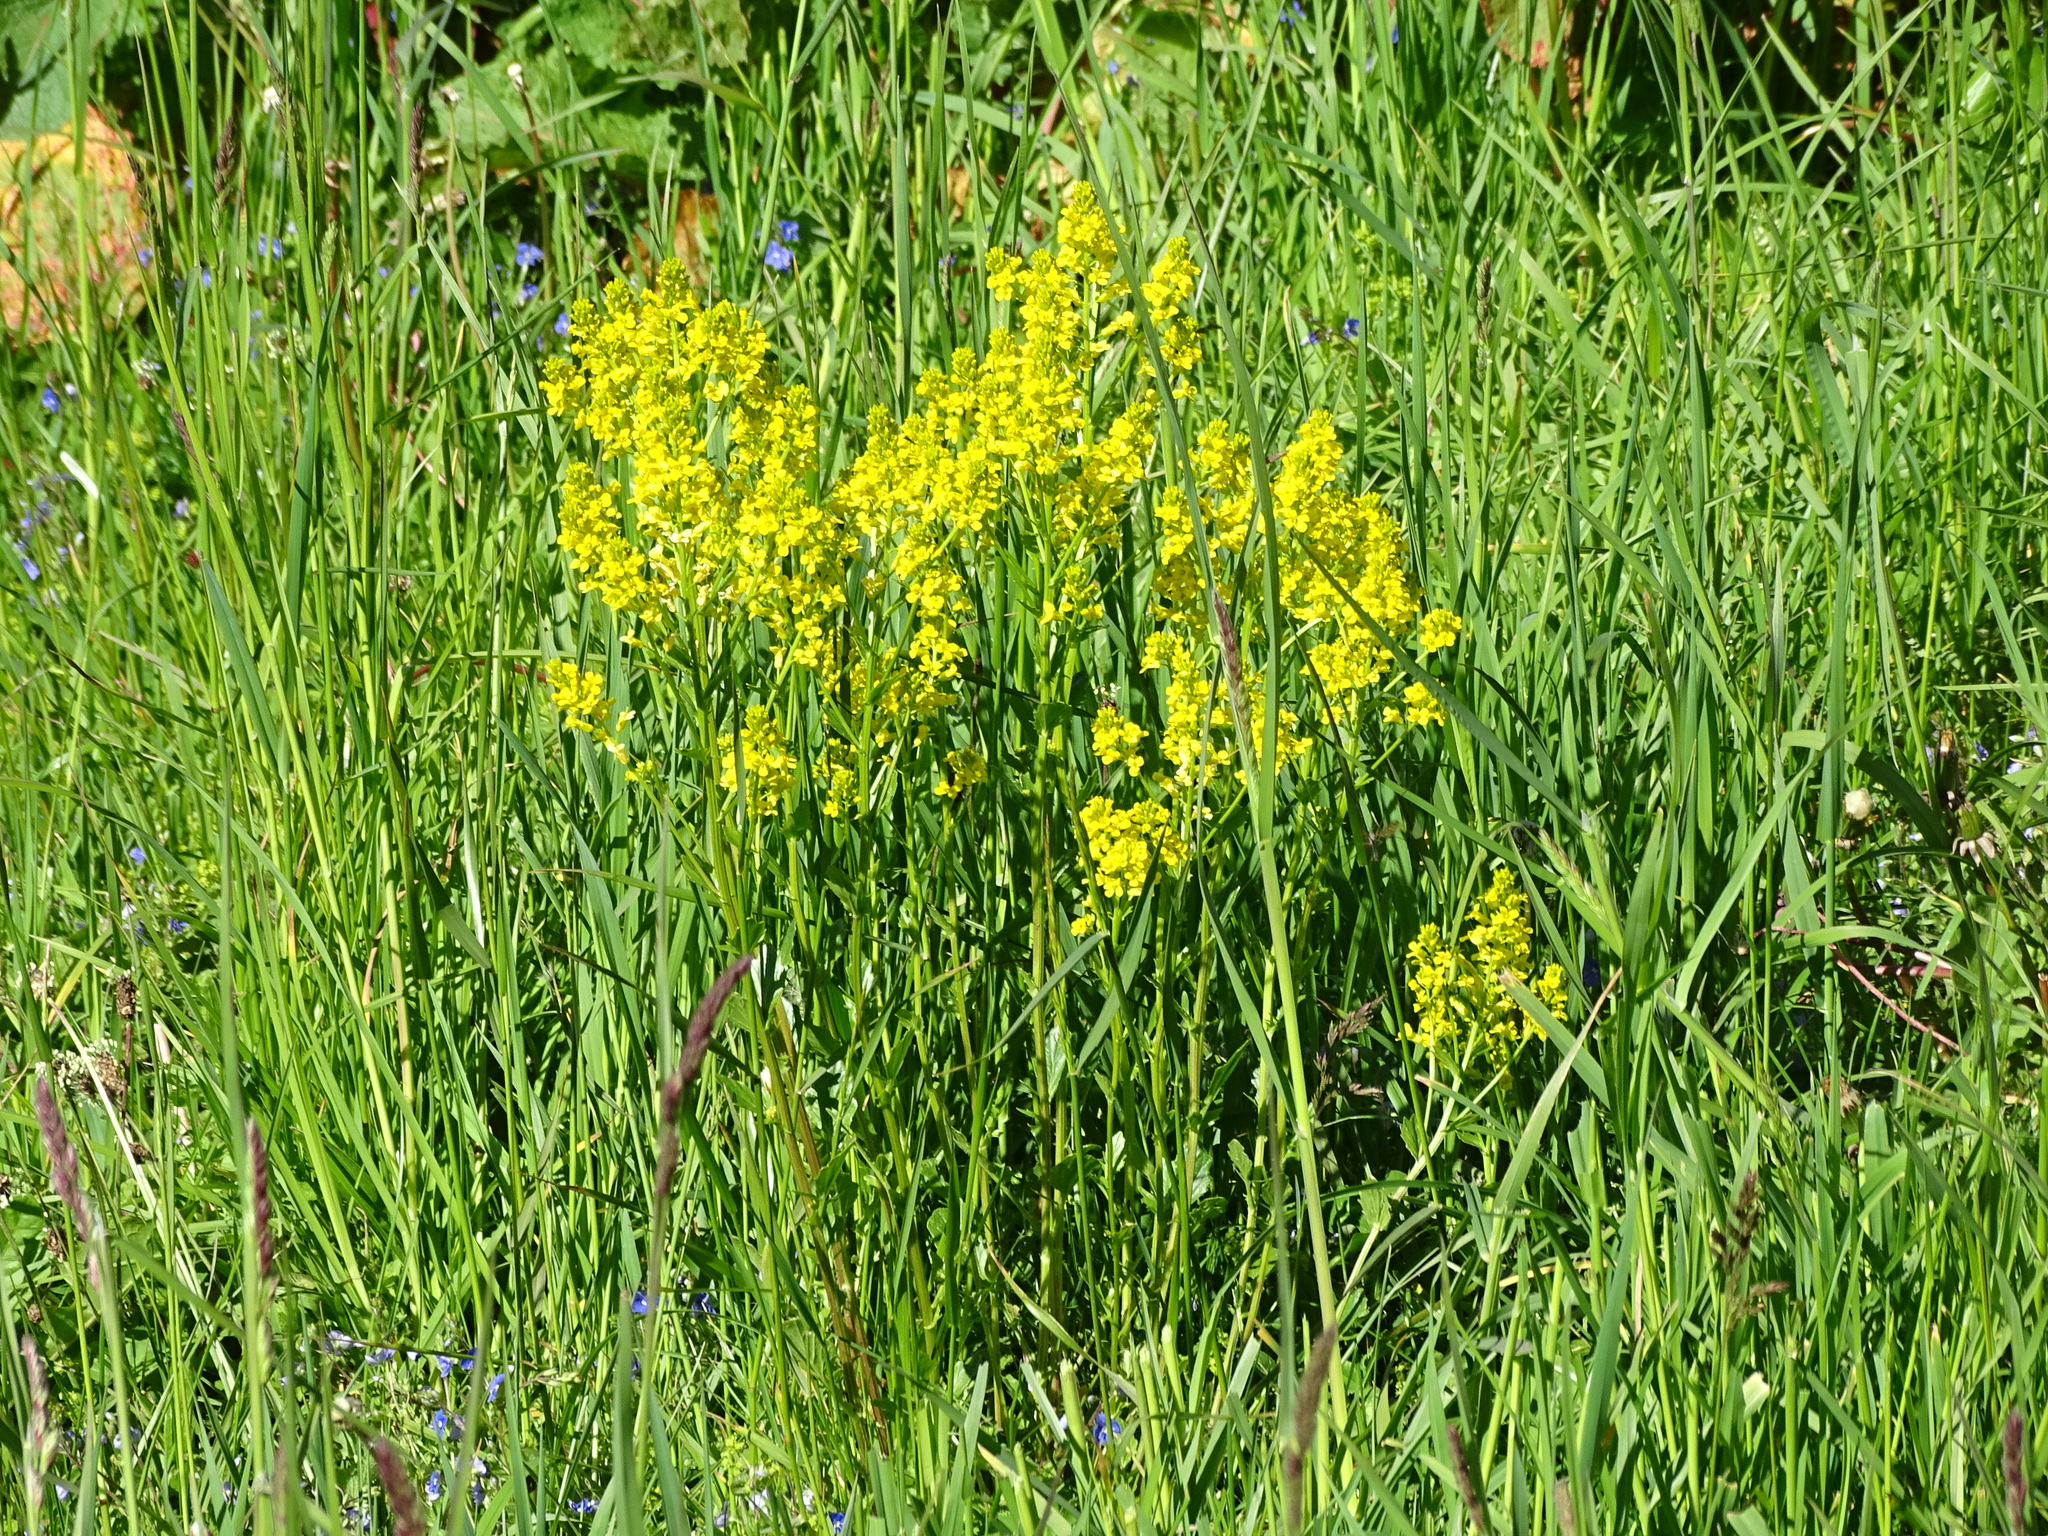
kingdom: Plantae
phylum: Tracheophyta
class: Magnoliopsida
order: Brassicales
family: Brassicaceae
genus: Barbarea
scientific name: Barbarea vulgaris
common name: Cressy-greens
